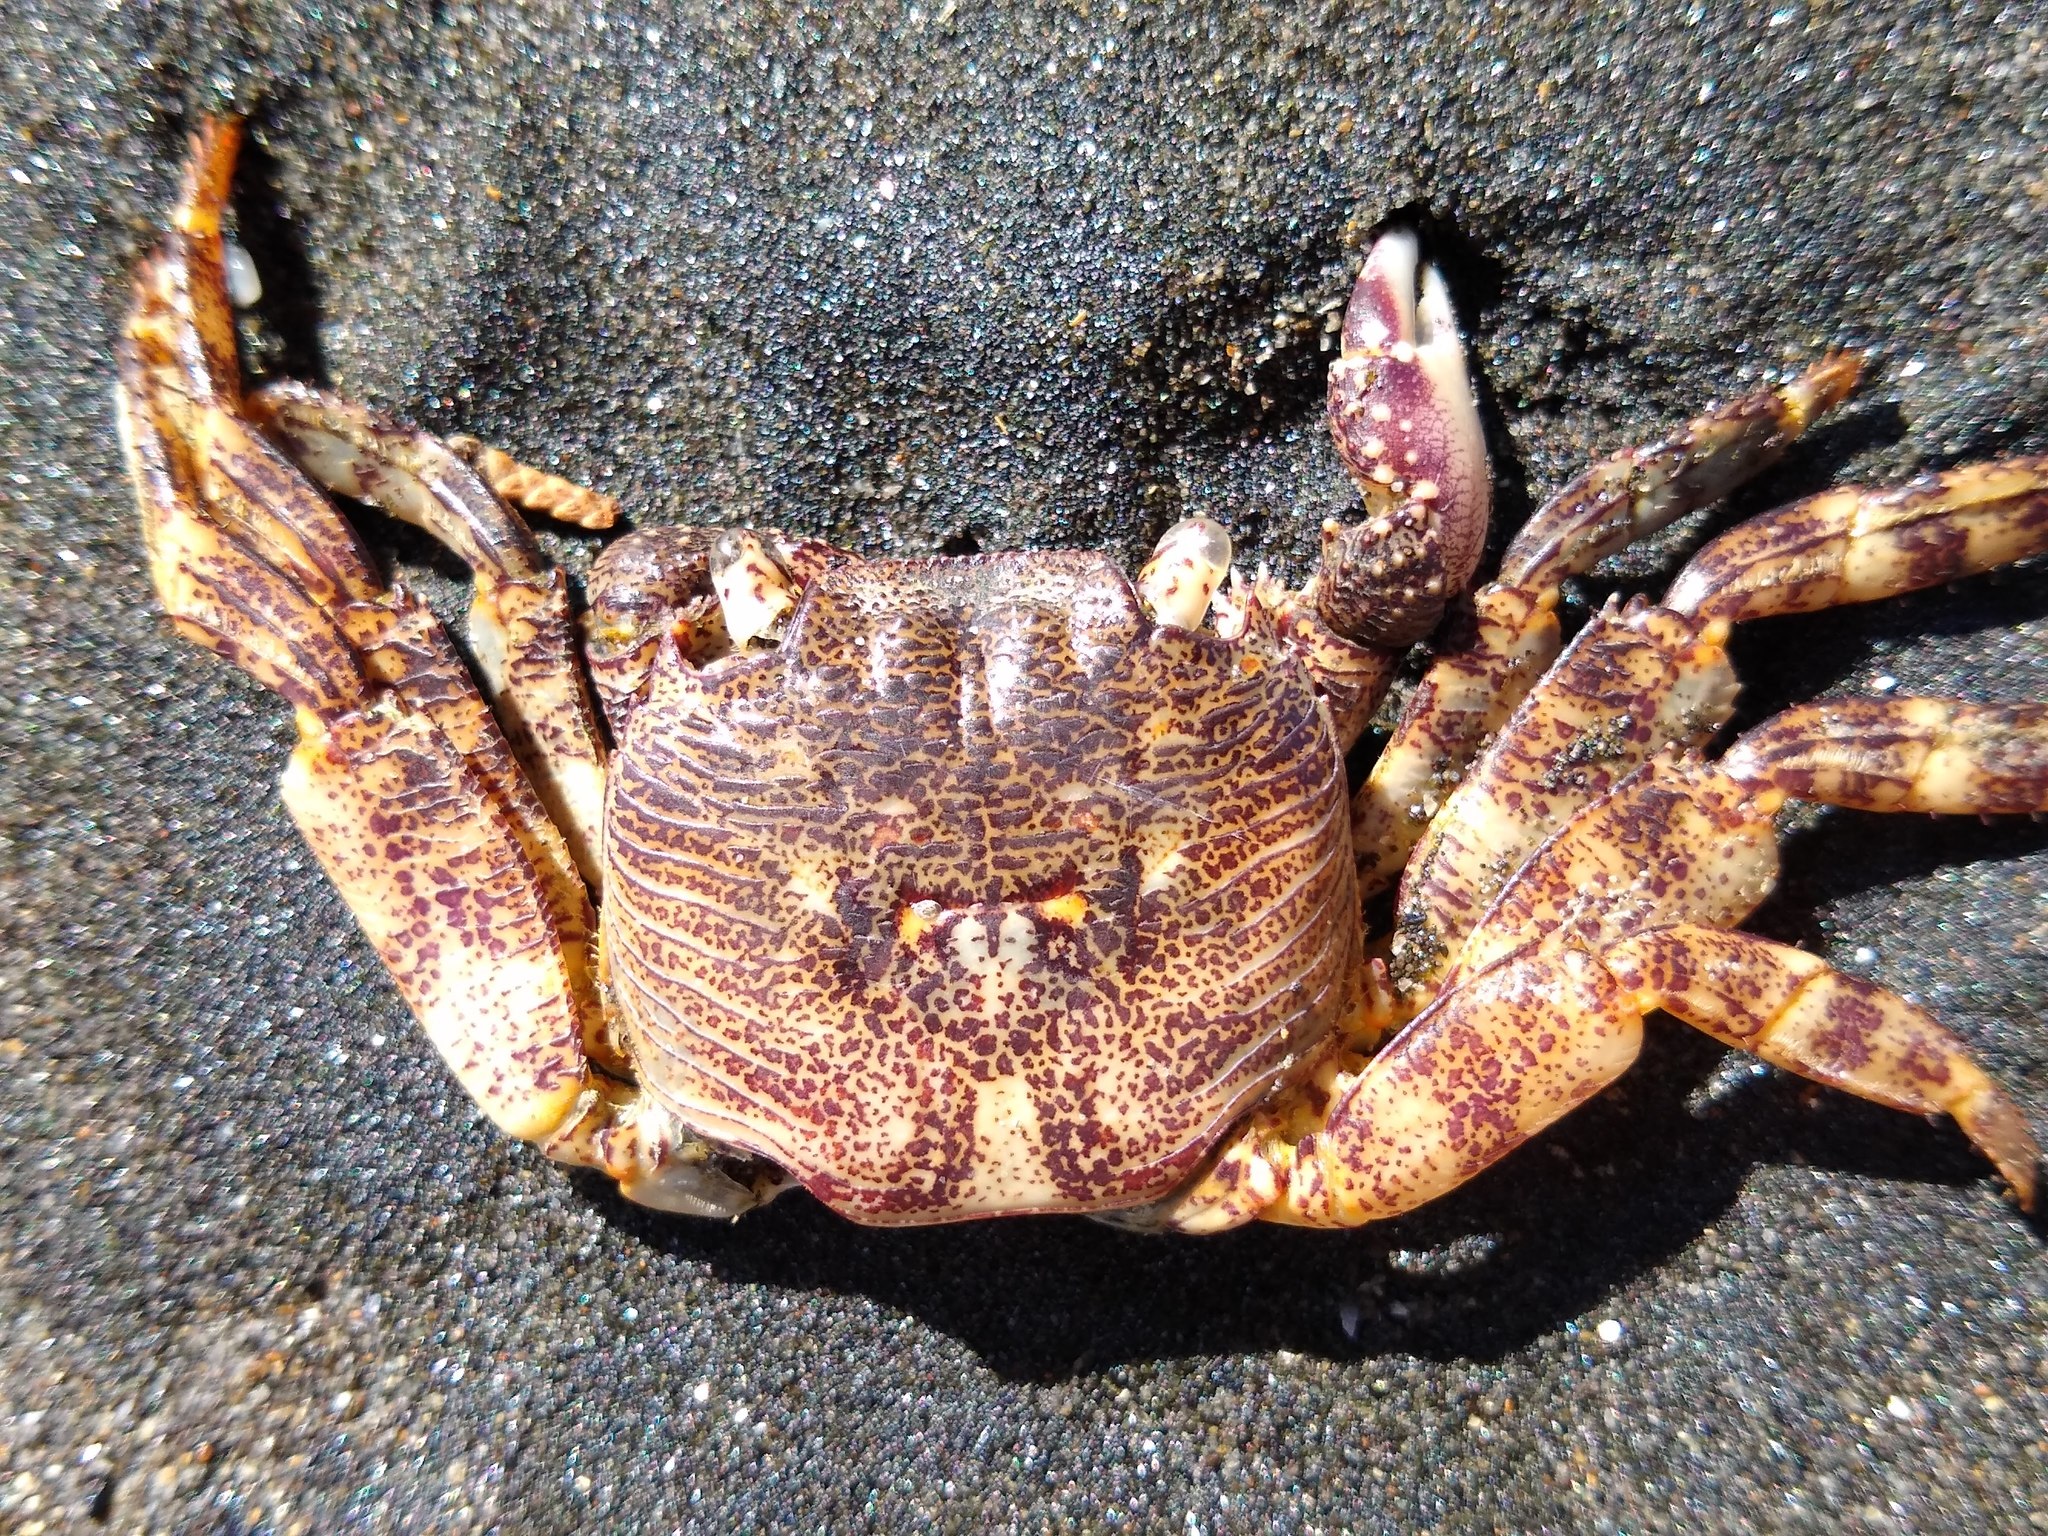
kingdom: Animalia
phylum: Arthropoda
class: Malacostraca
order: Decapoda
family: Grapsidae
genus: Leptograpsus
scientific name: Leptograpsus variegatus
